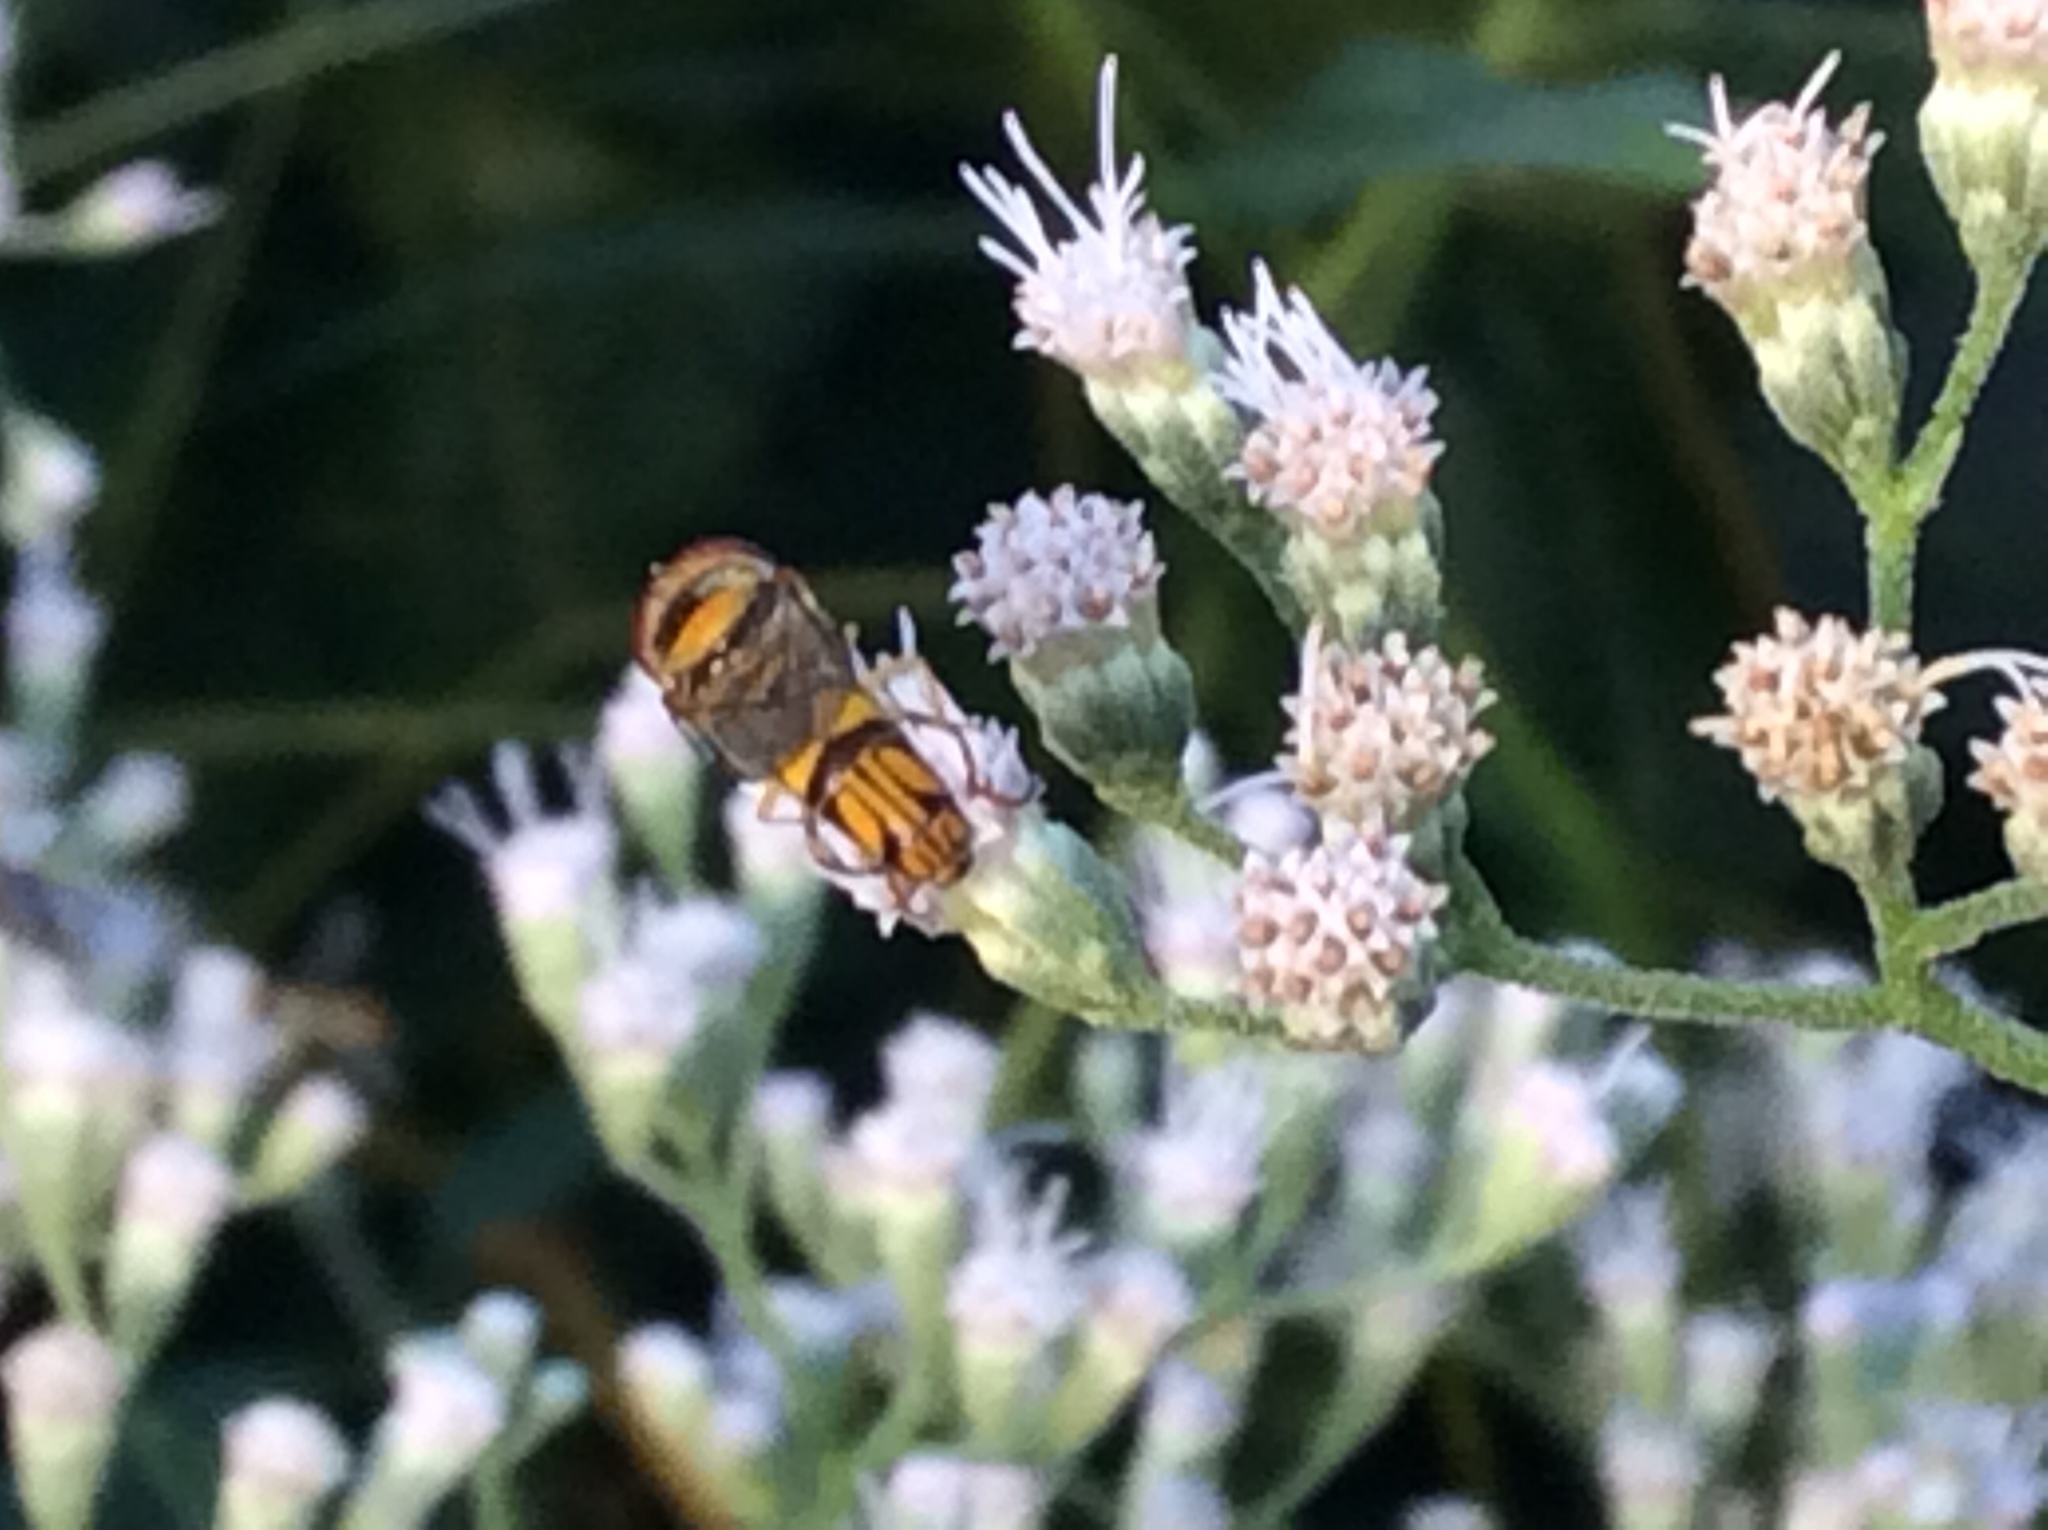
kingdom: Animalia
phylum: Arthropoda
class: Insecta
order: Diptera
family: Syrphidae
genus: Allograpta
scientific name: Allograpta obliqua
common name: Common oblique syrphid
